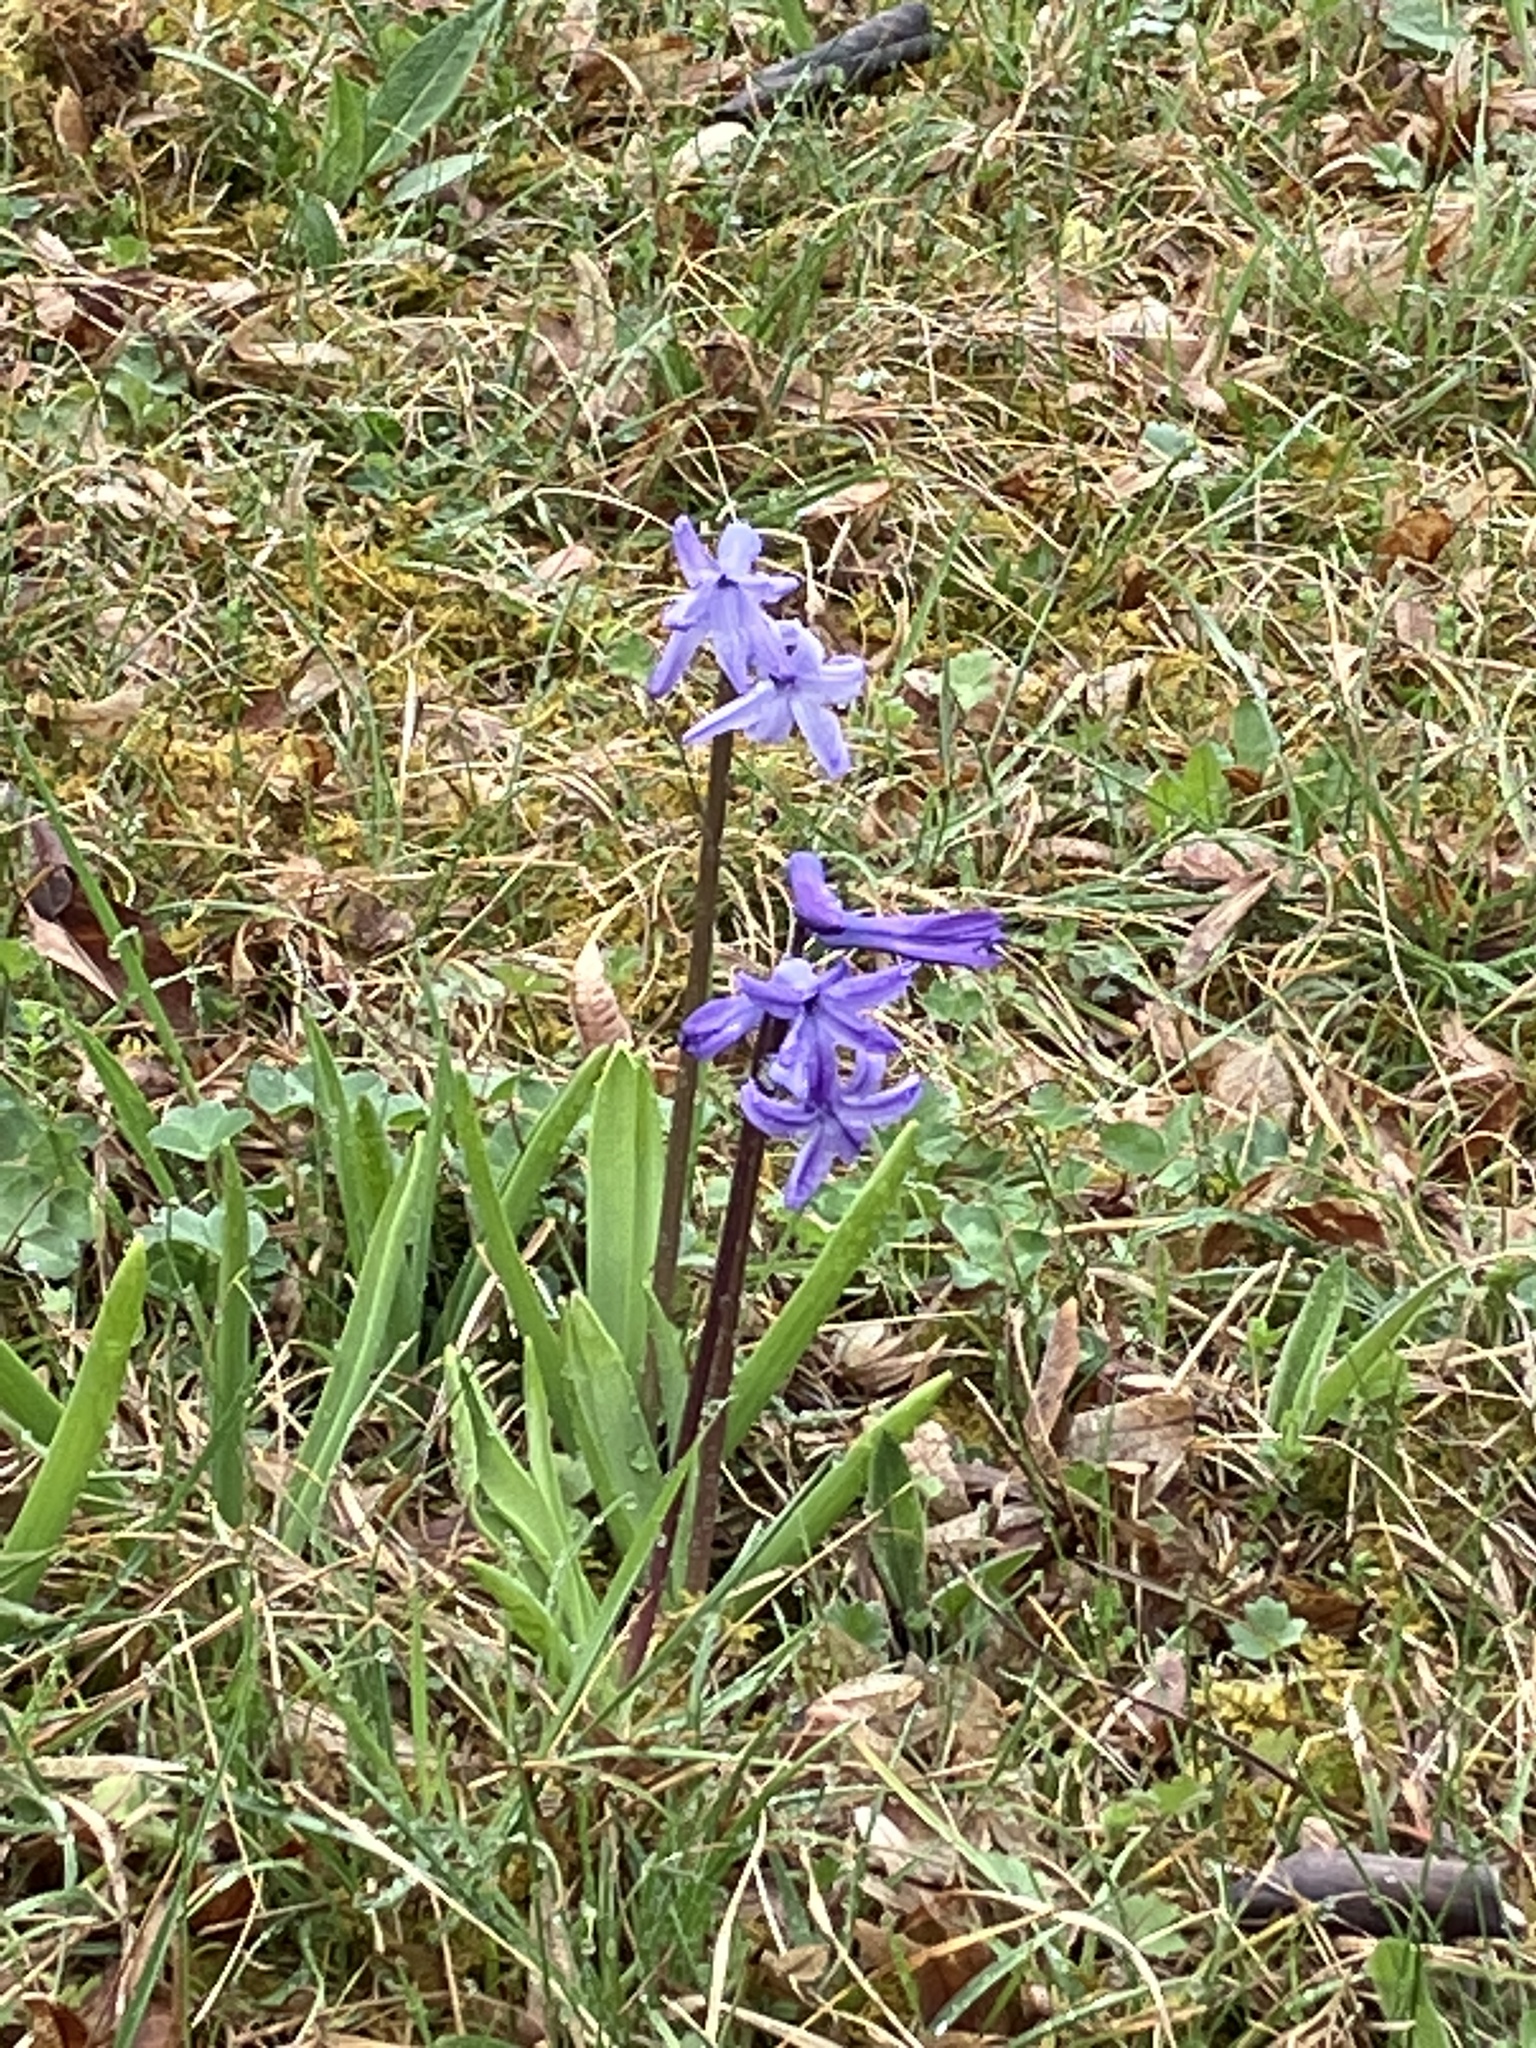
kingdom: Plantae
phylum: Tracheophyta
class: Liliopsida
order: Asparagales
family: Asparagaceae
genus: Hyacinthus
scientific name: Hyacinthus orientalis
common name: Hyacinth
